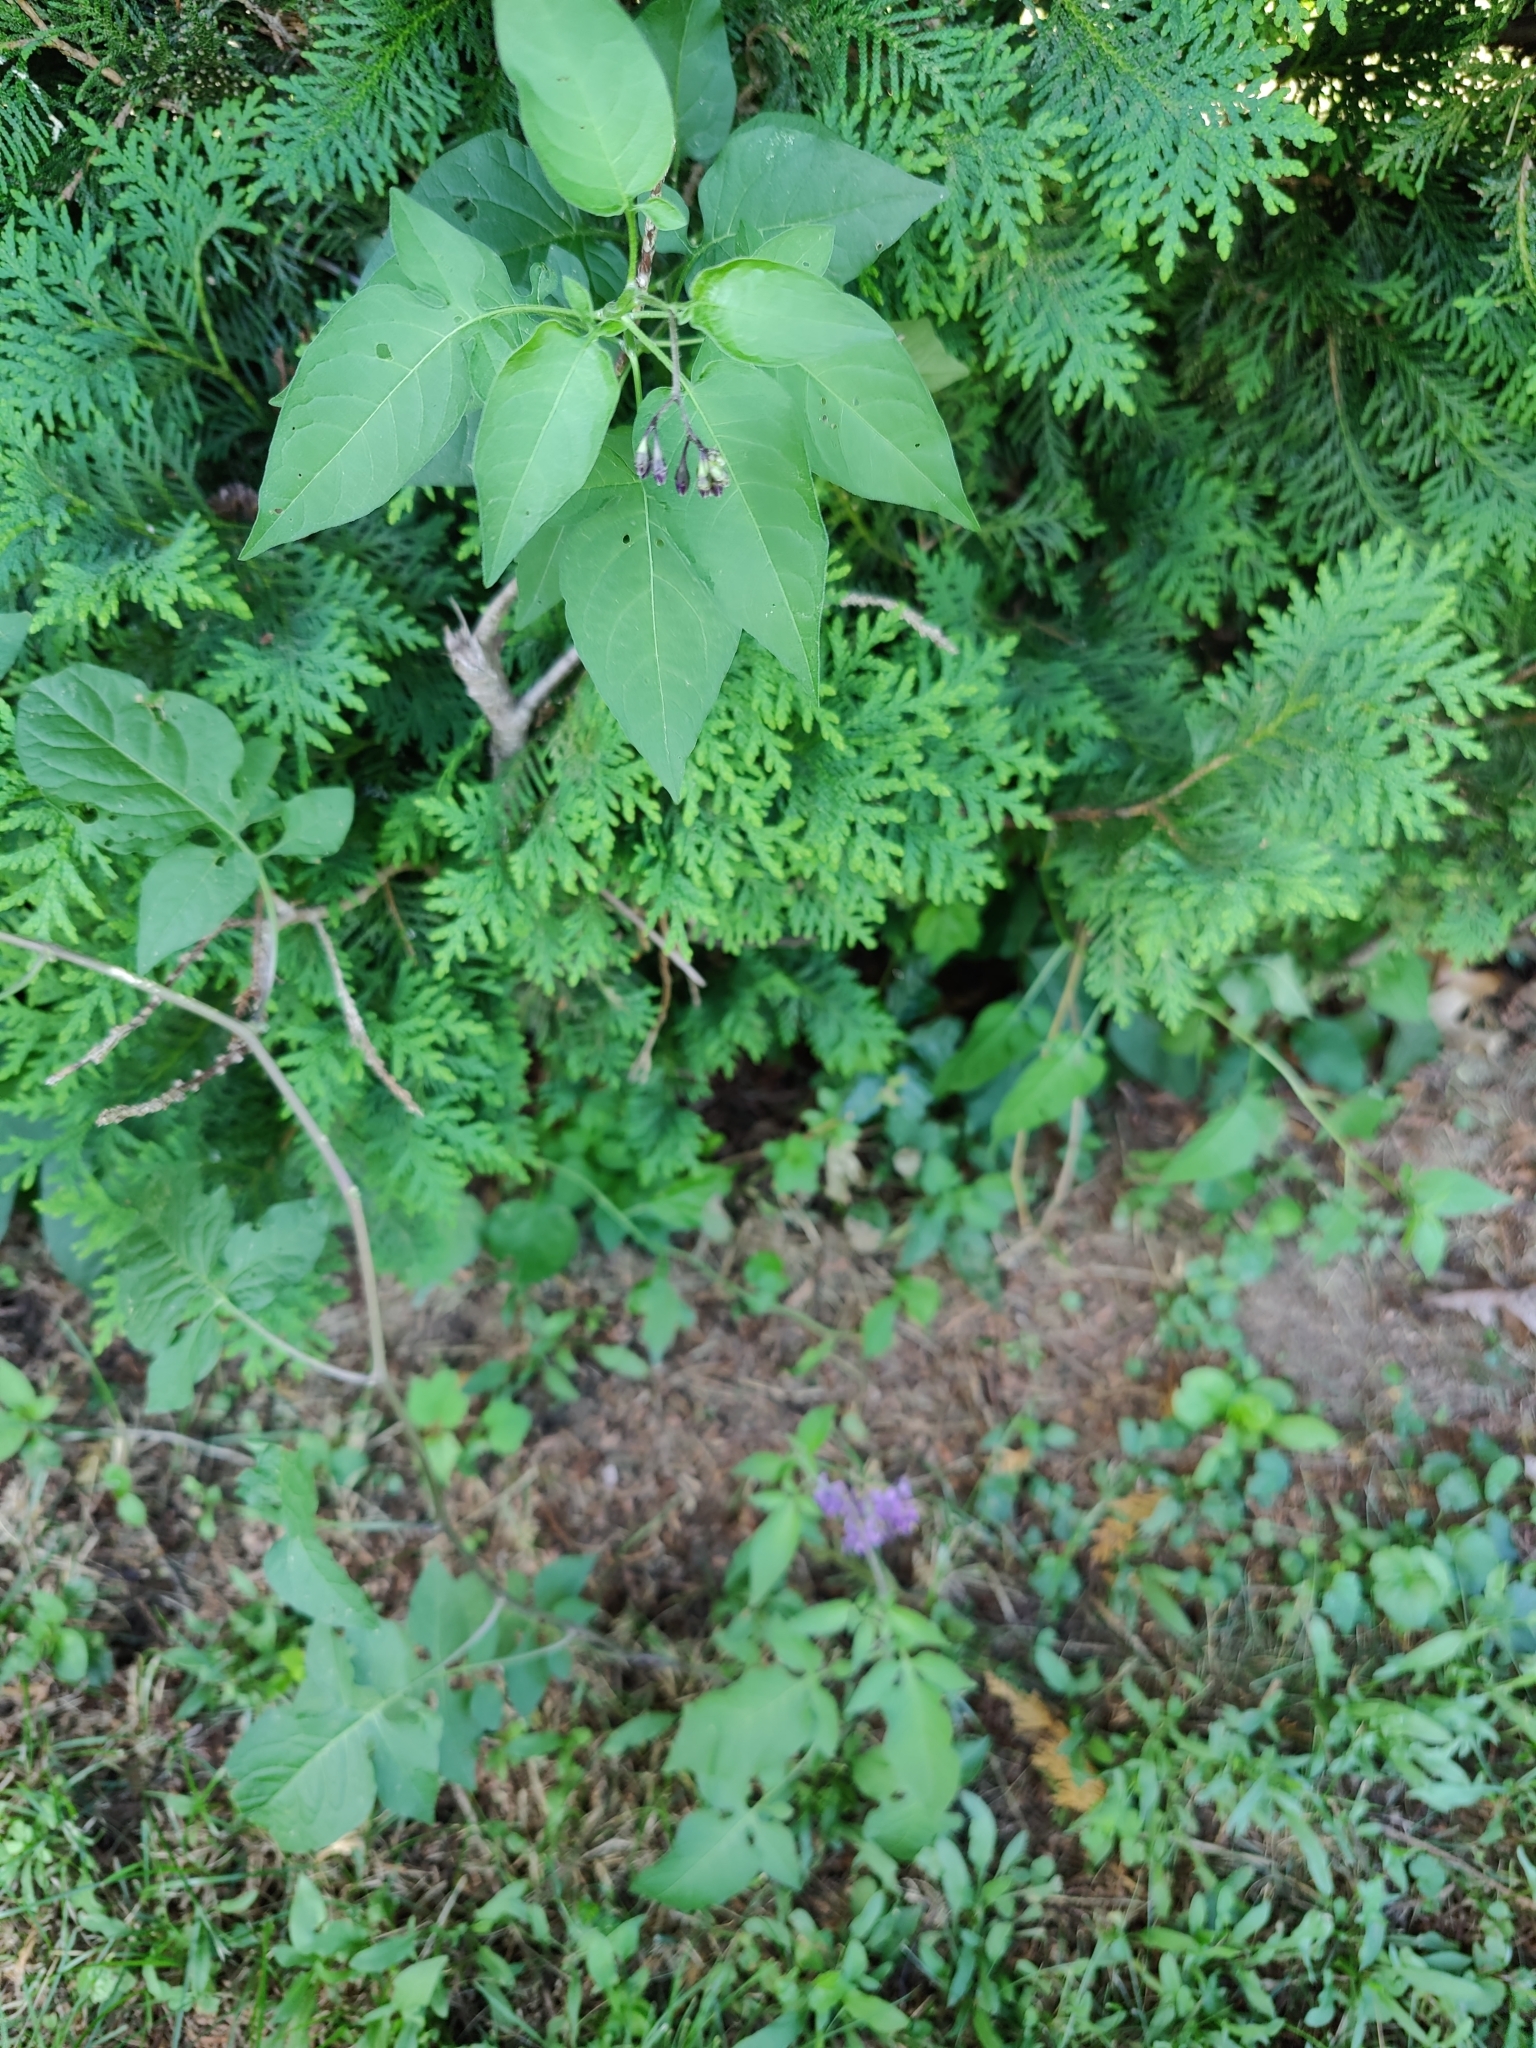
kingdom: Plantae
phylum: Tracheophyta
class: Magnoliopsida
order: Solanales
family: Solanaceae
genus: Solanum
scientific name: Solanum dulcamara
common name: Climbing nightshade
